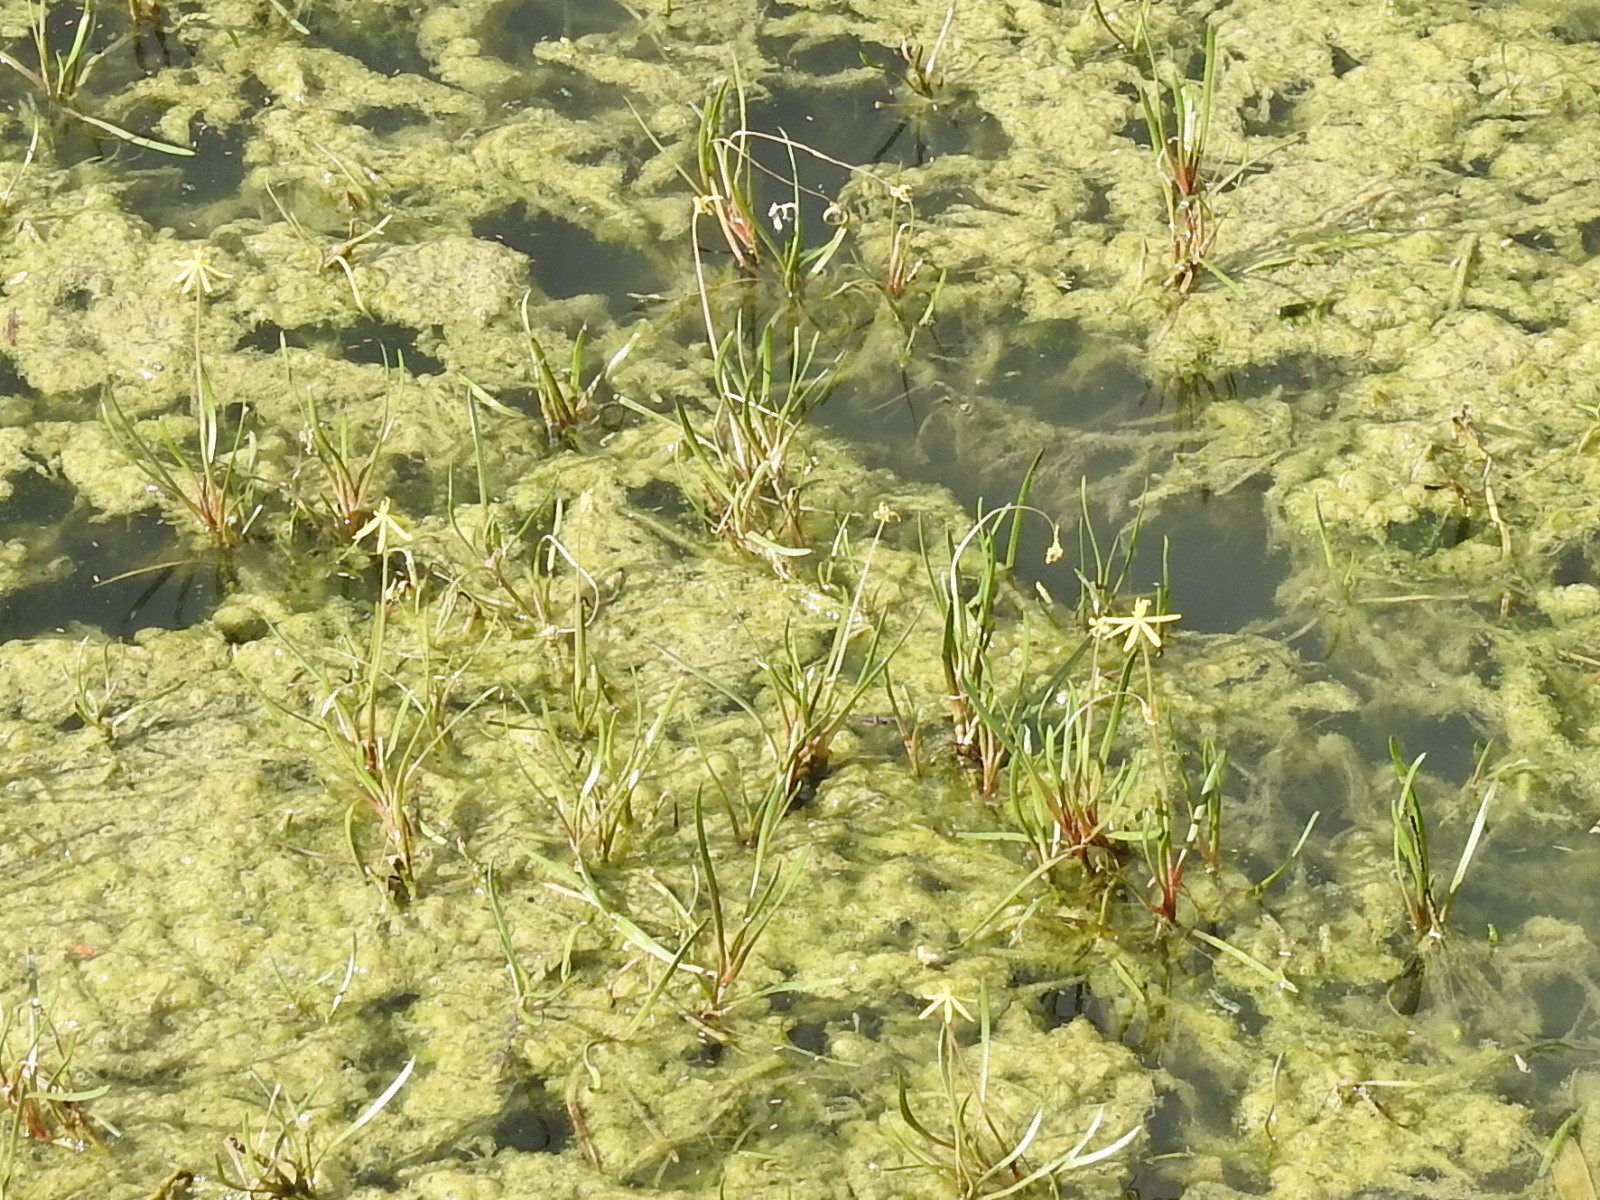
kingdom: Plantae
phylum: Tracheophyta
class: Liliopsida
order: Commelinales
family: Pontederiaceae
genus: Heteranthera
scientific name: Heteranthera dubia
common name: Grass-leaved mud plantain
